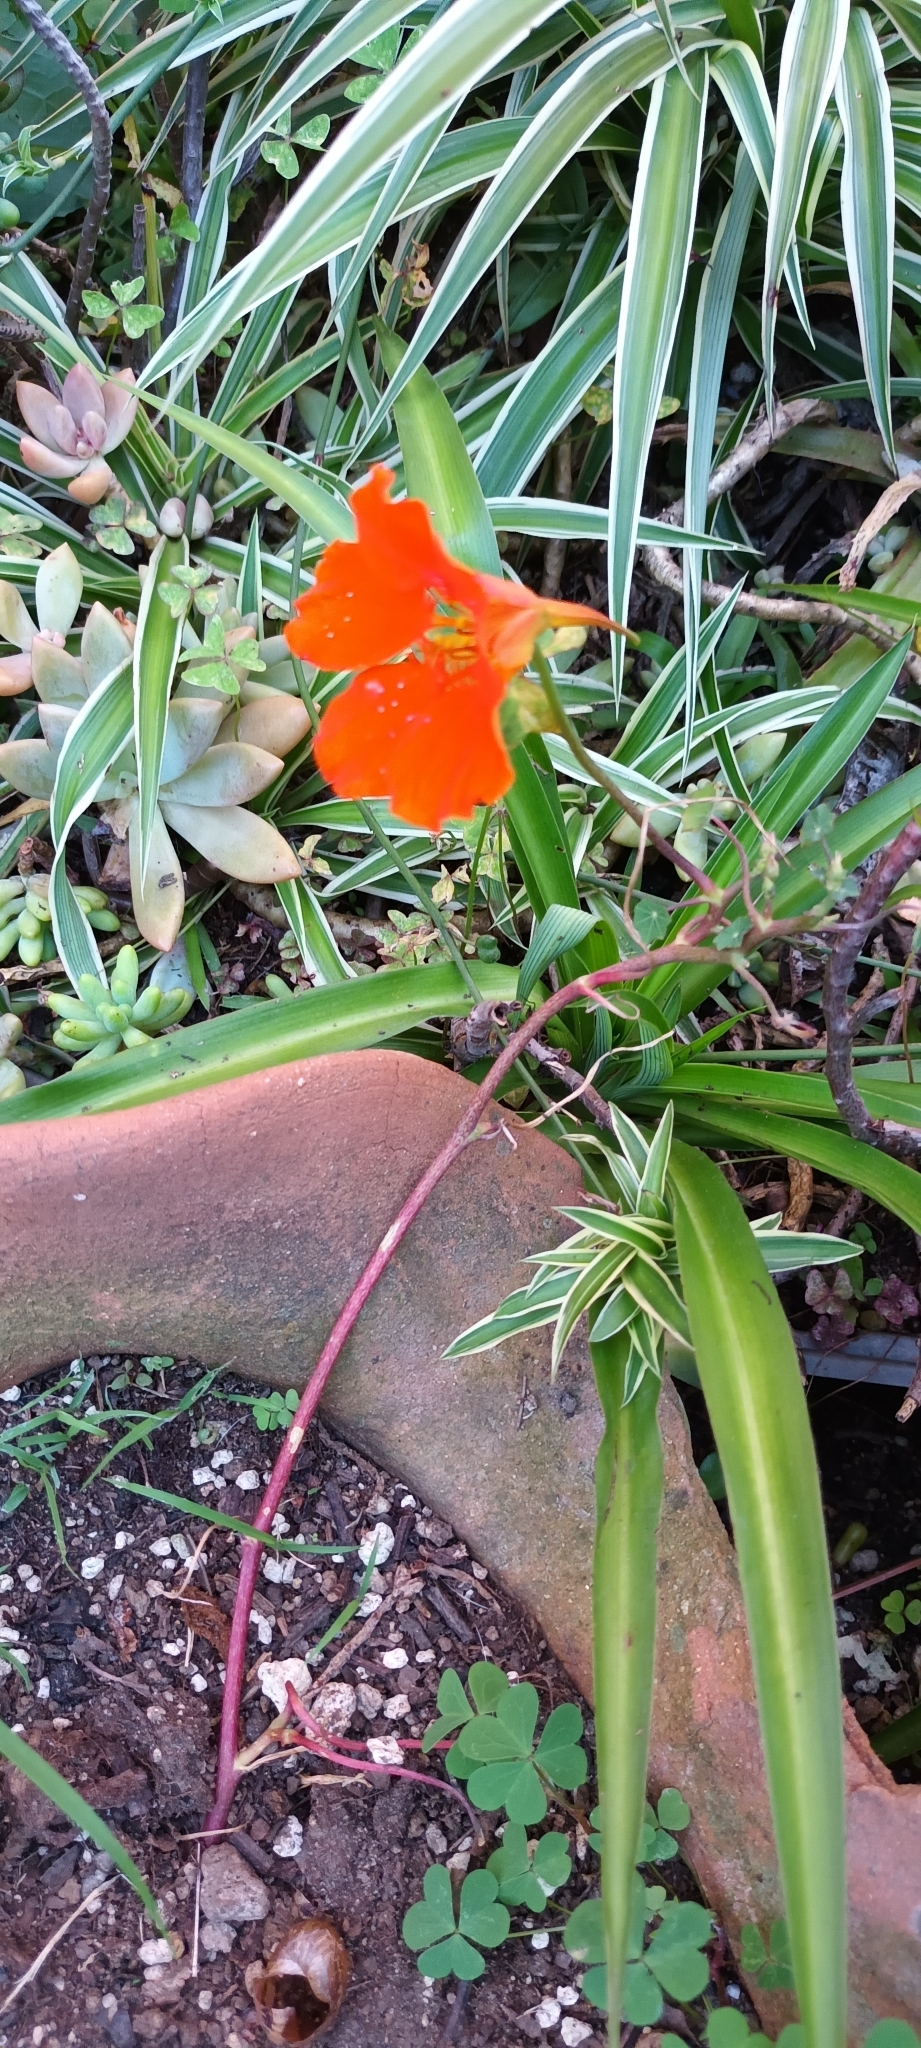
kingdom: Plantae
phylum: Tracheophyta
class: Magnoliopsida
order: Brassicales
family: Tropaeolaceae
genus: Tropaeolum
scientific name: Tropaeolum majus
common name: Nasturtium
